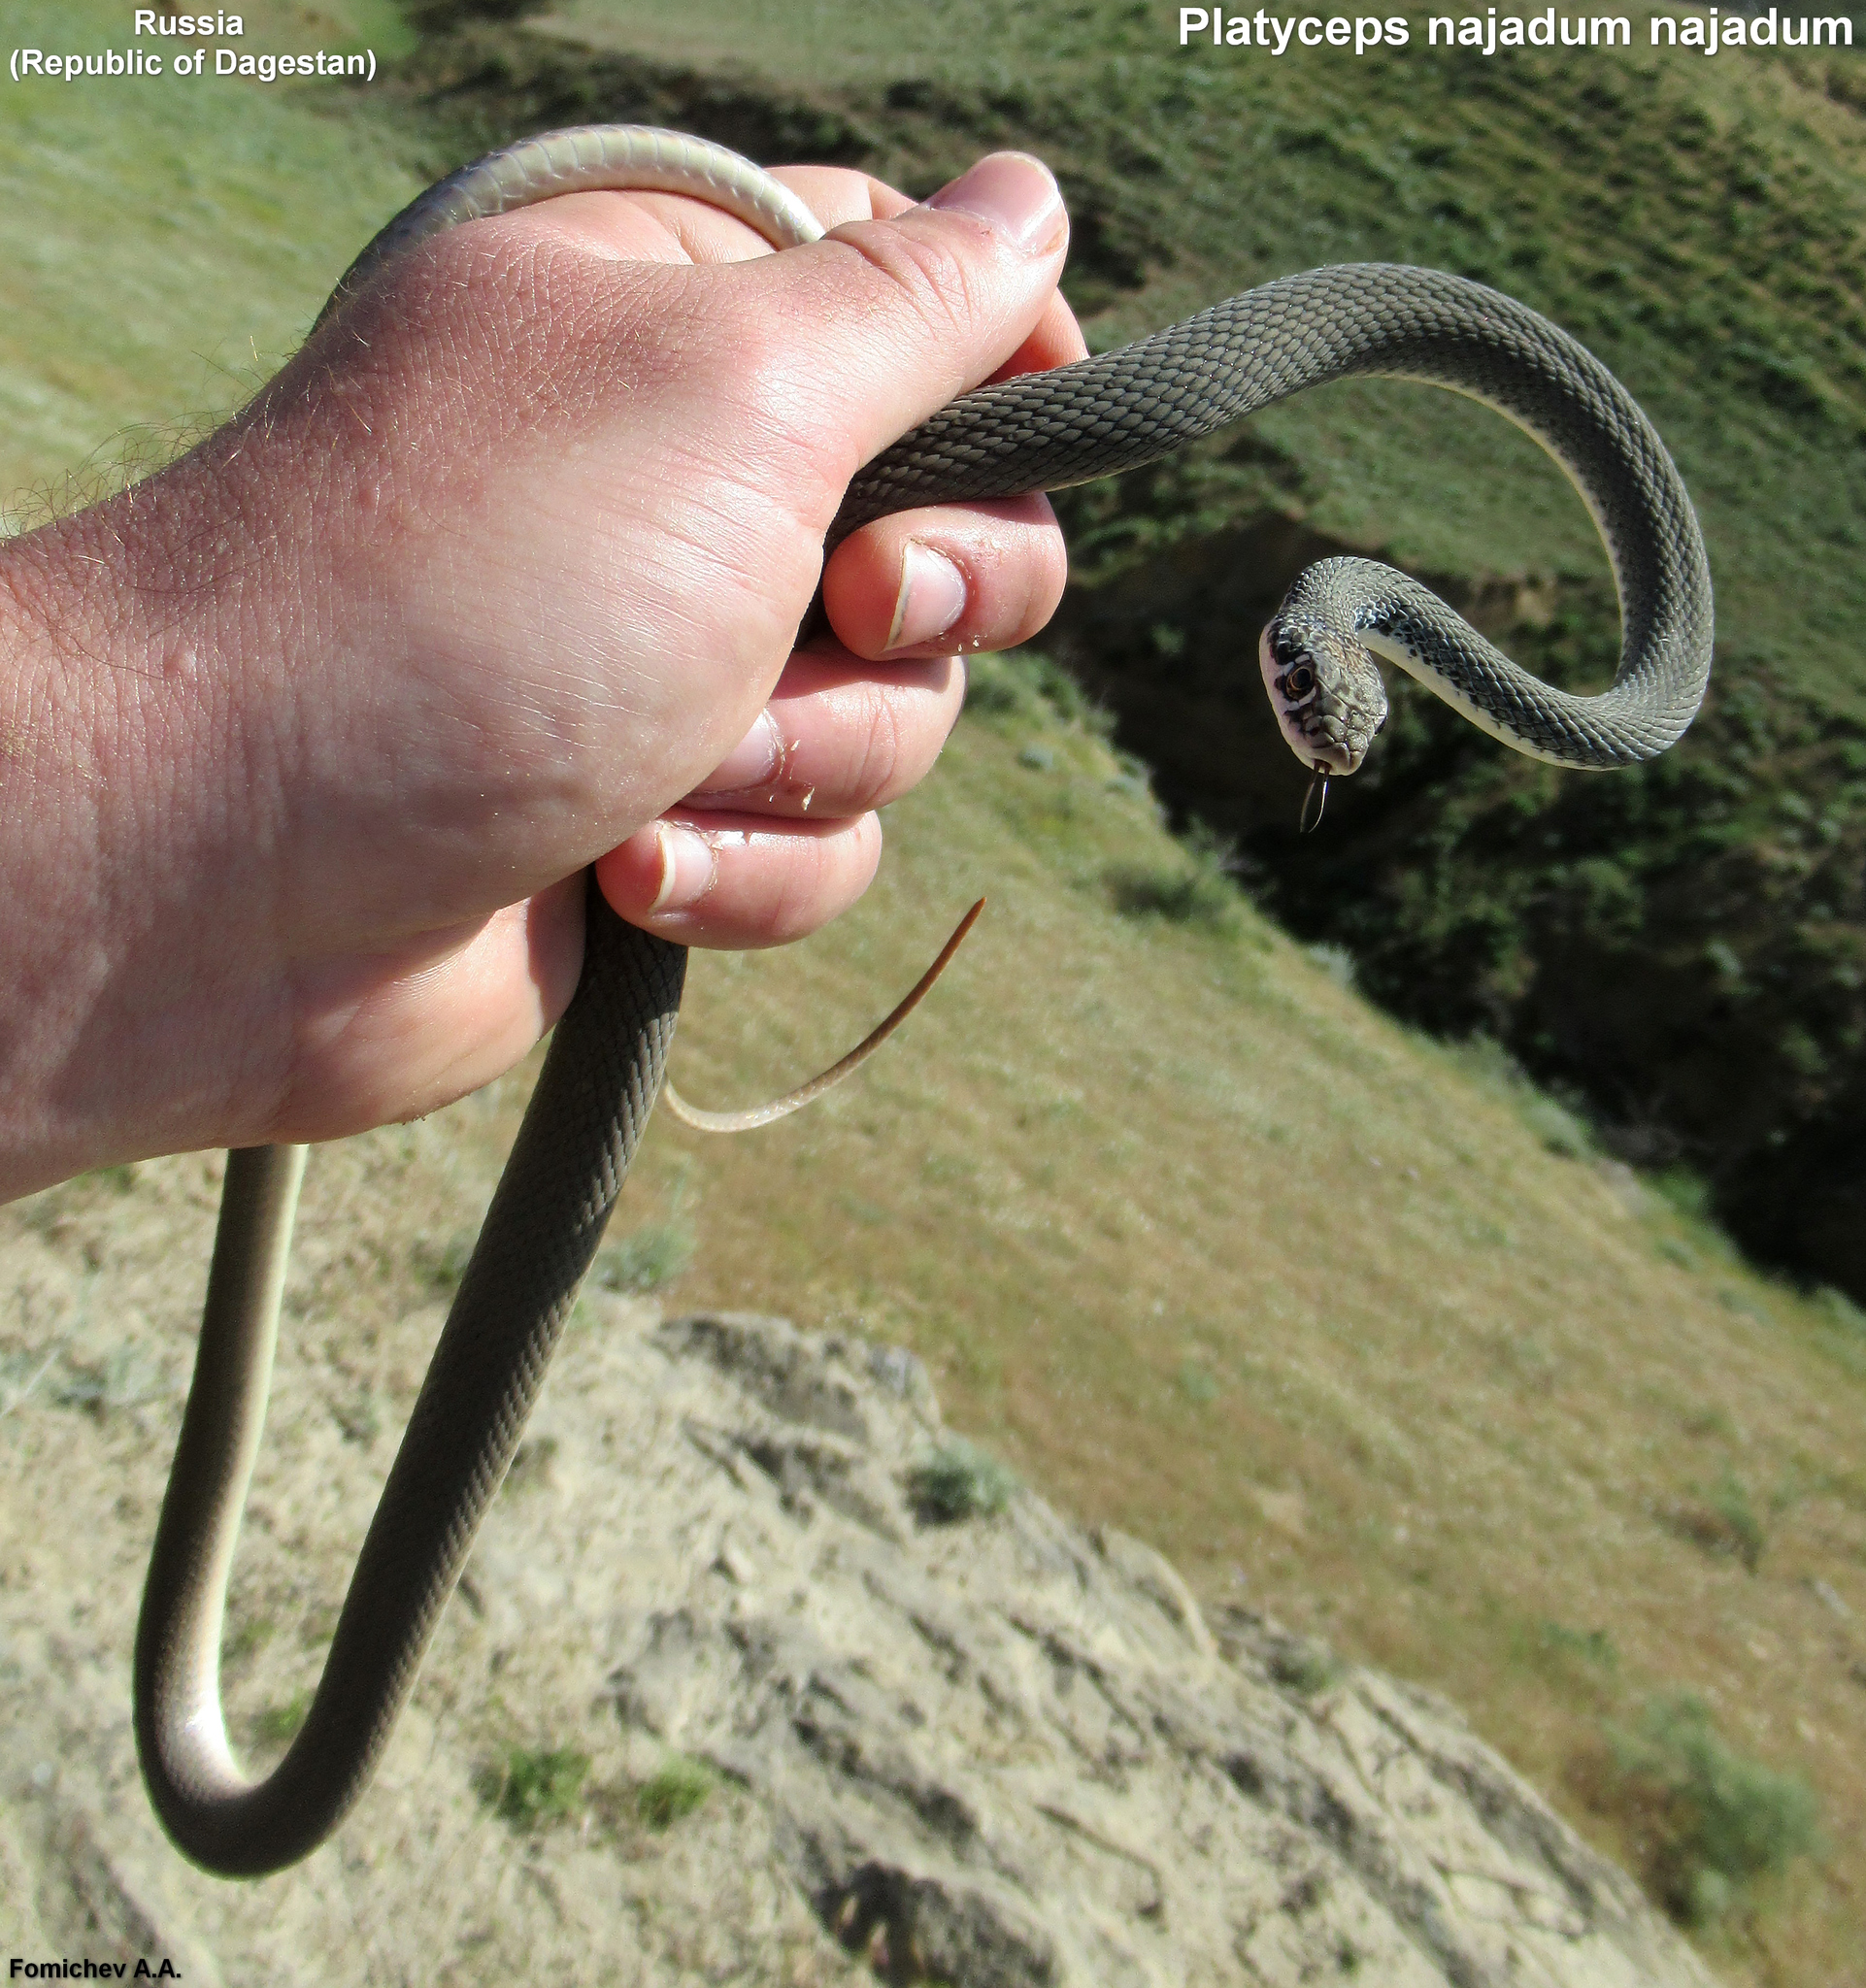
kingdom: Animalia
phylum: Chordata
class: Squamata
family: Colubridae
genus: Platyceps
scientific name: Platyceps najadum
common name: Dahl's whip snake
